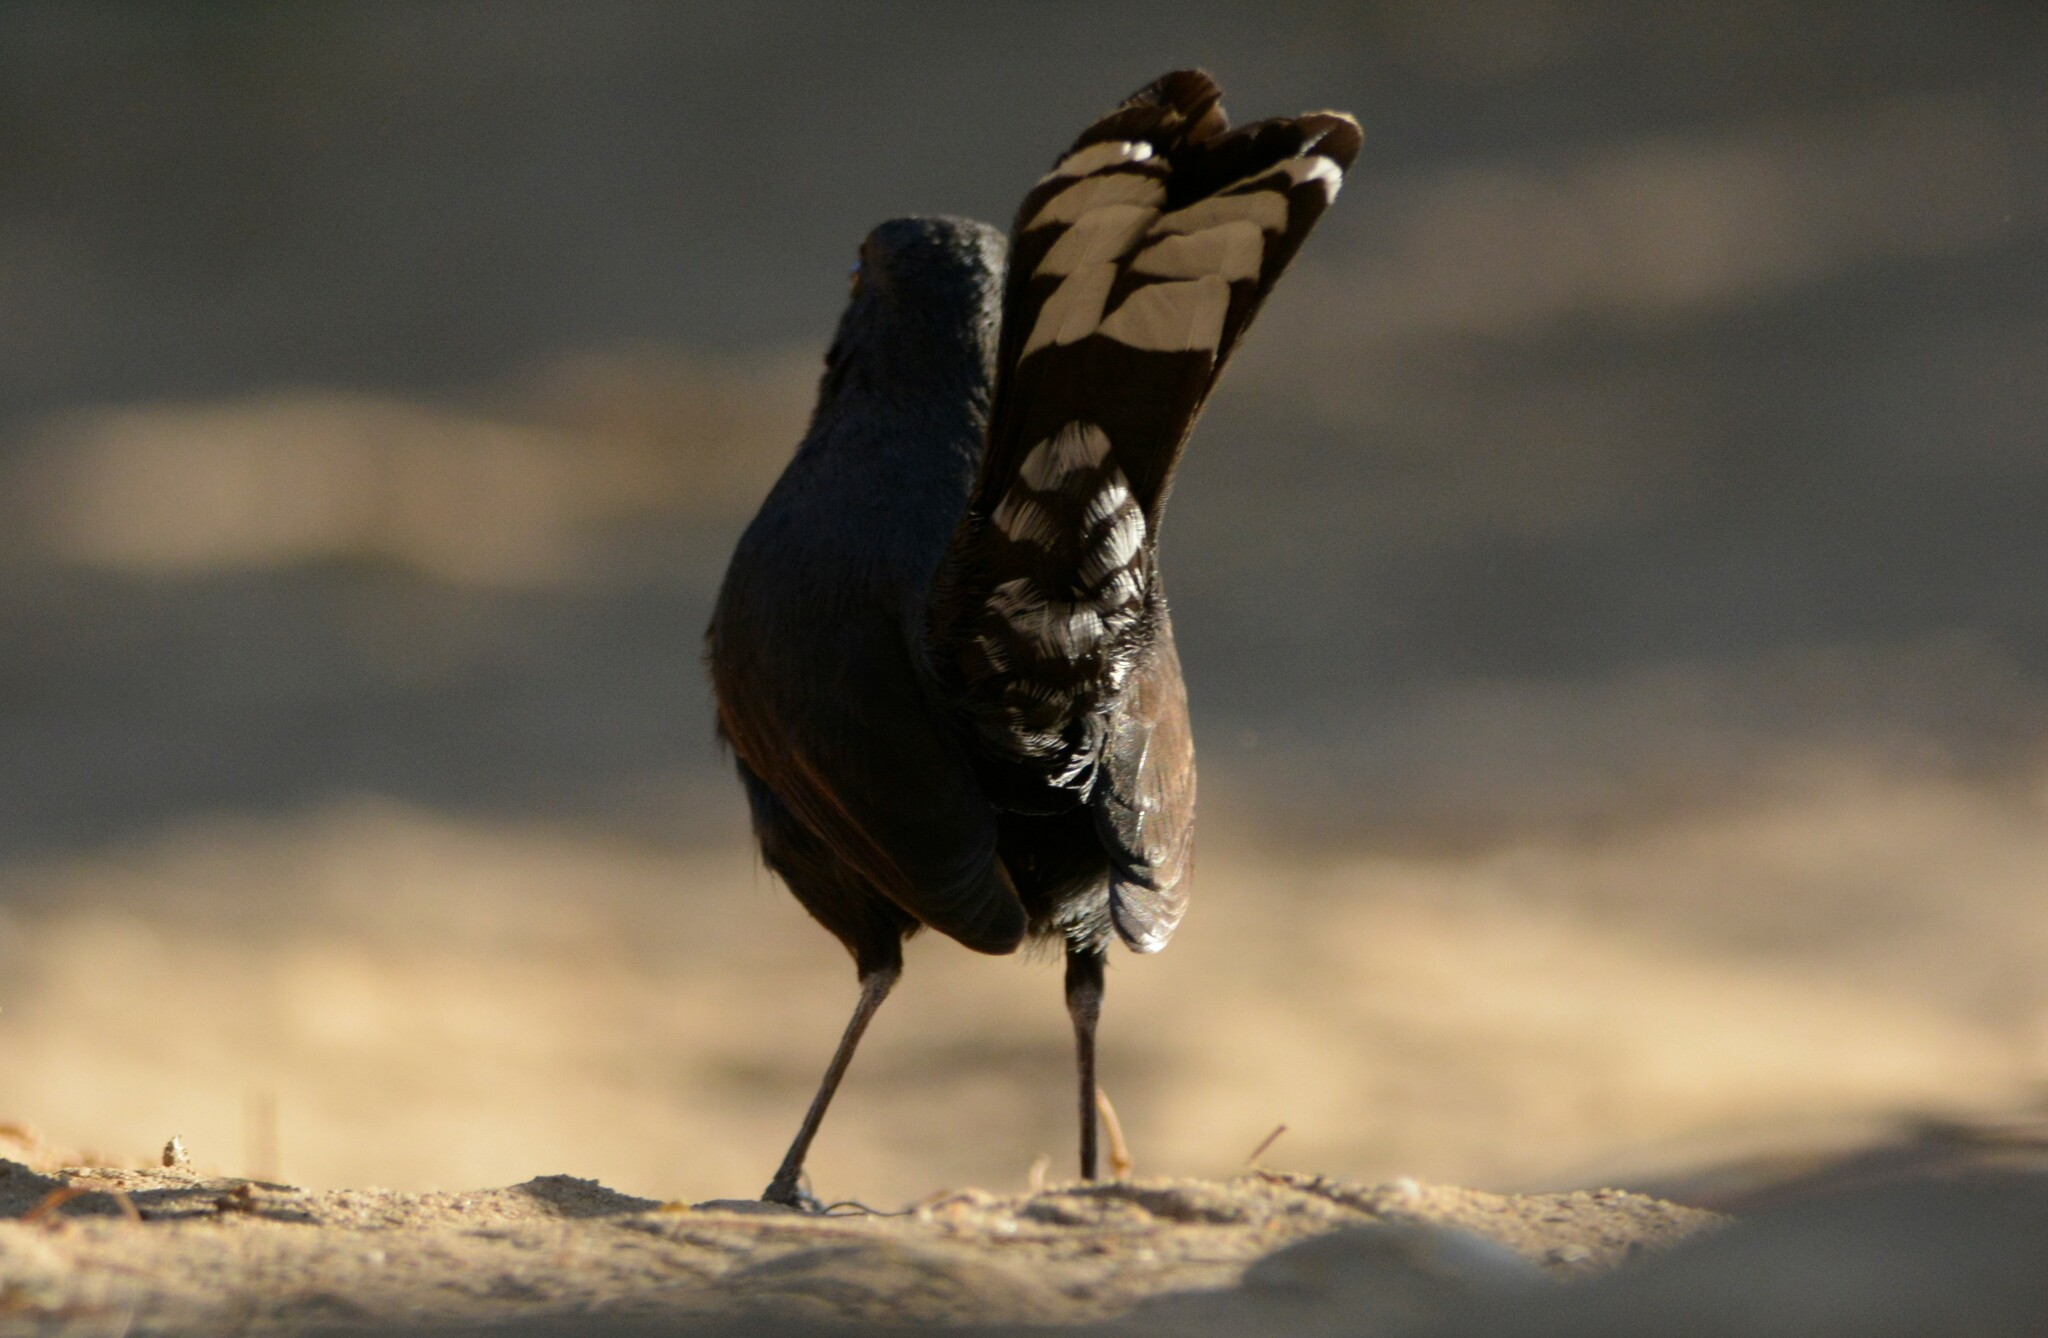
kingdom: Animalia
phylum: Chordata
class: Aves
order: Passeriformes
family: Muscicapidae
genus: Cercotrichas
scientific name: Cercotrichas podobe
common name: Black scrub robin
